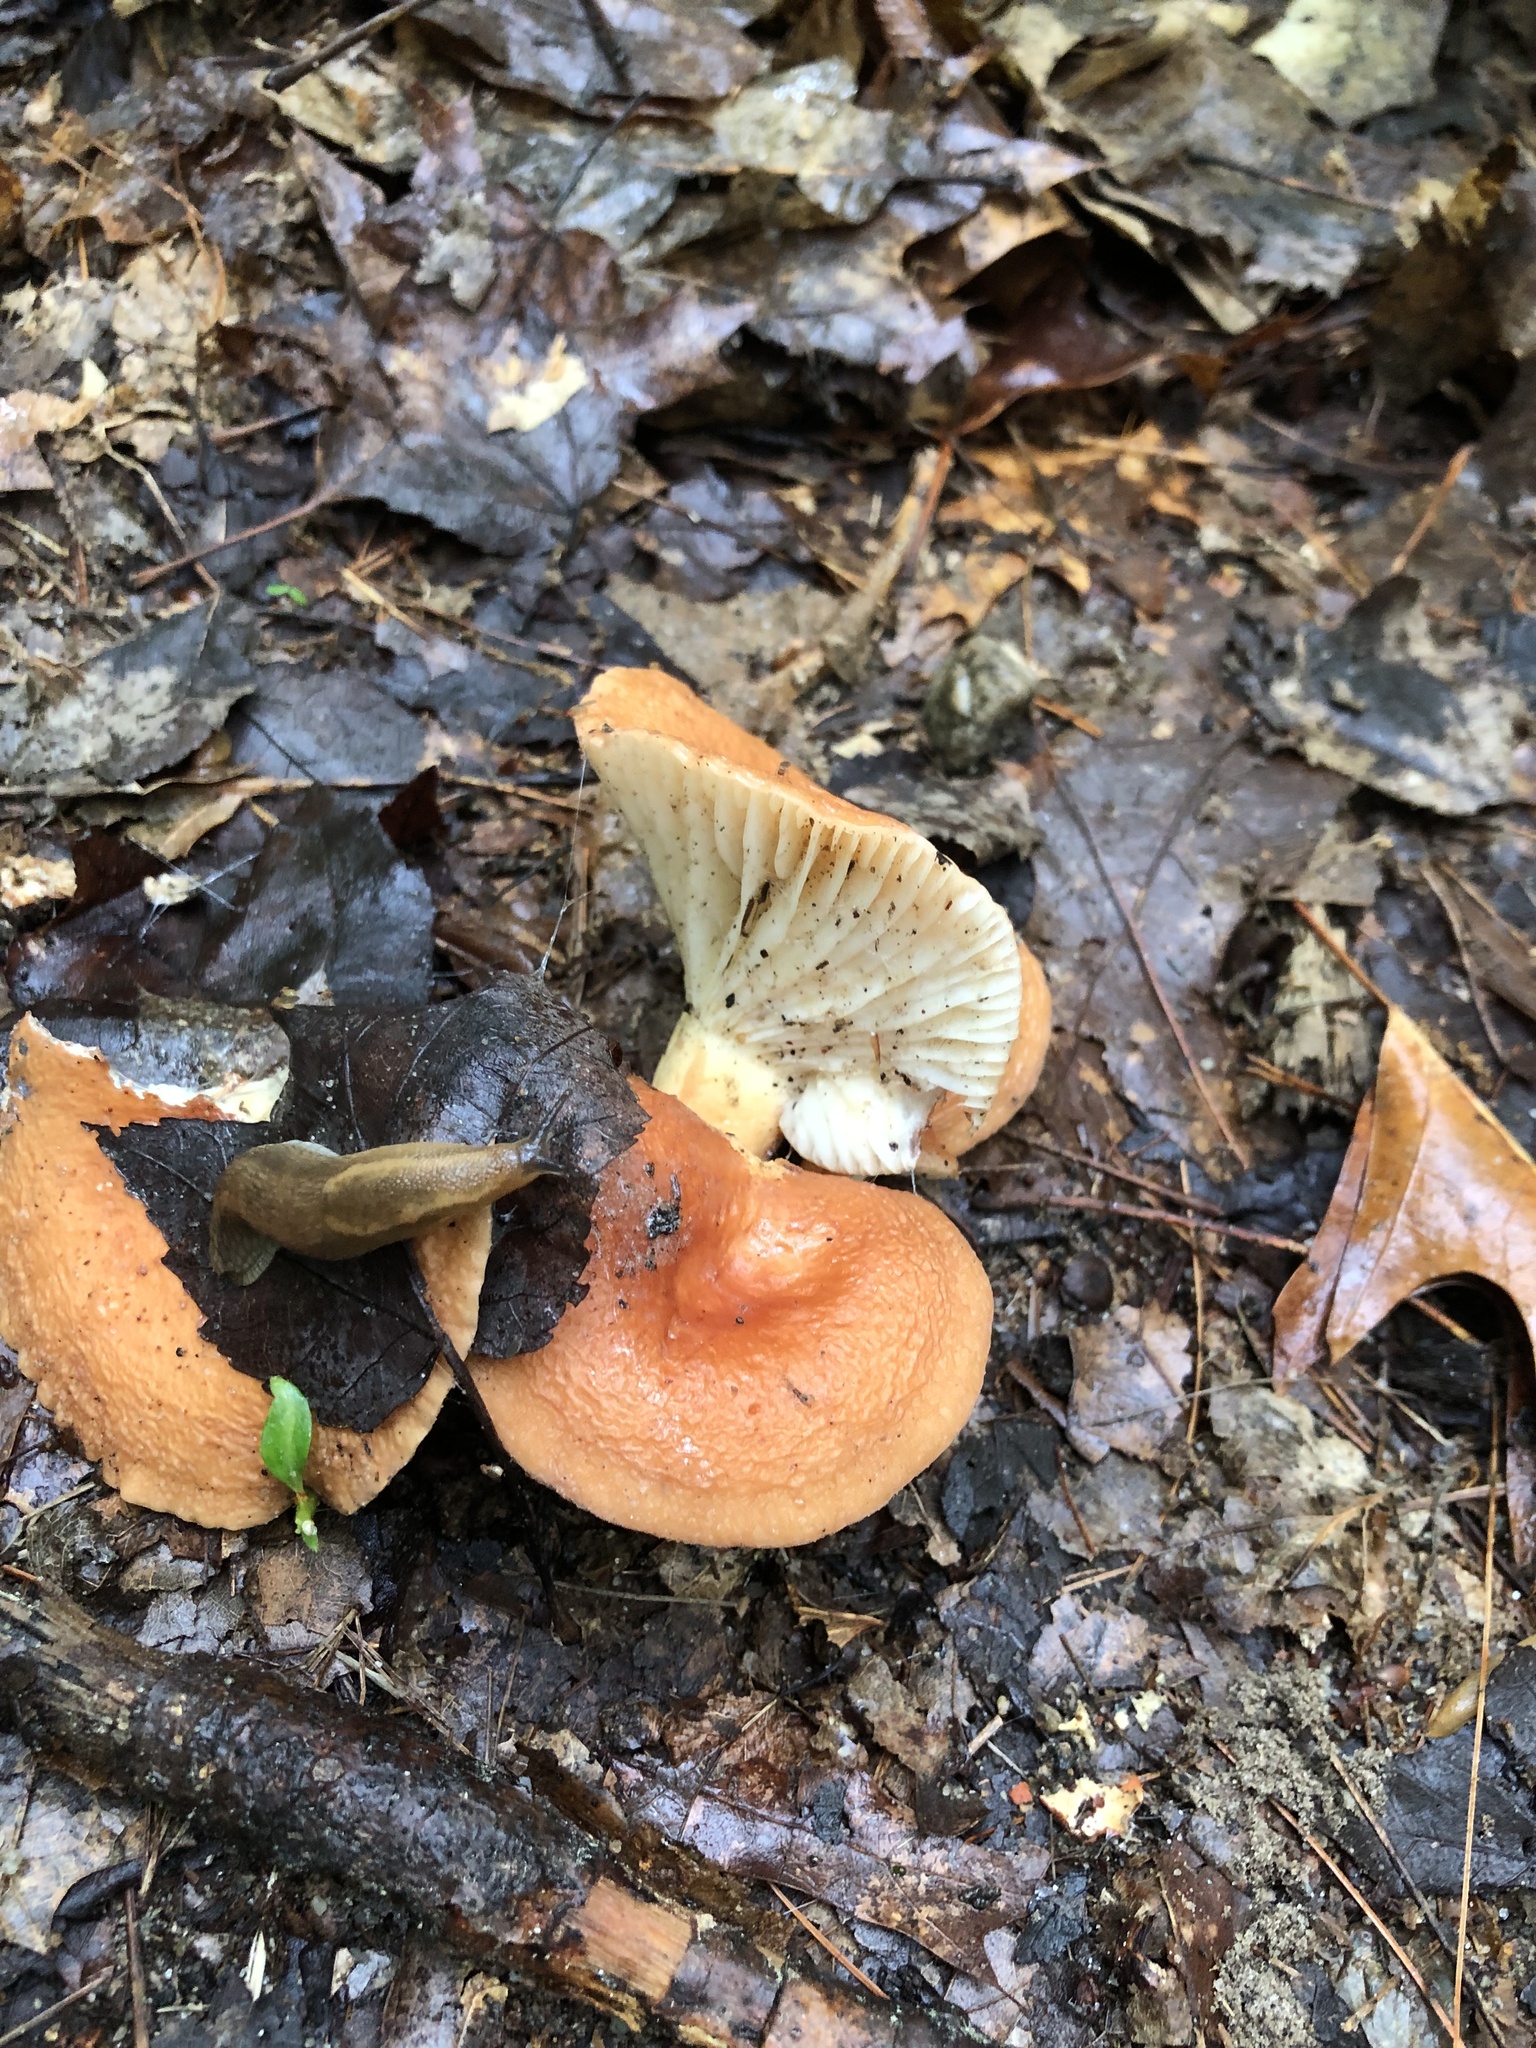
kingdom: Fungi
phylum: Basidiomycota
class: Agaricomycetes
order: Russulales
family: Russulaceae
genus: Lactarius
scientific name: Lactarius hygrophoroides
